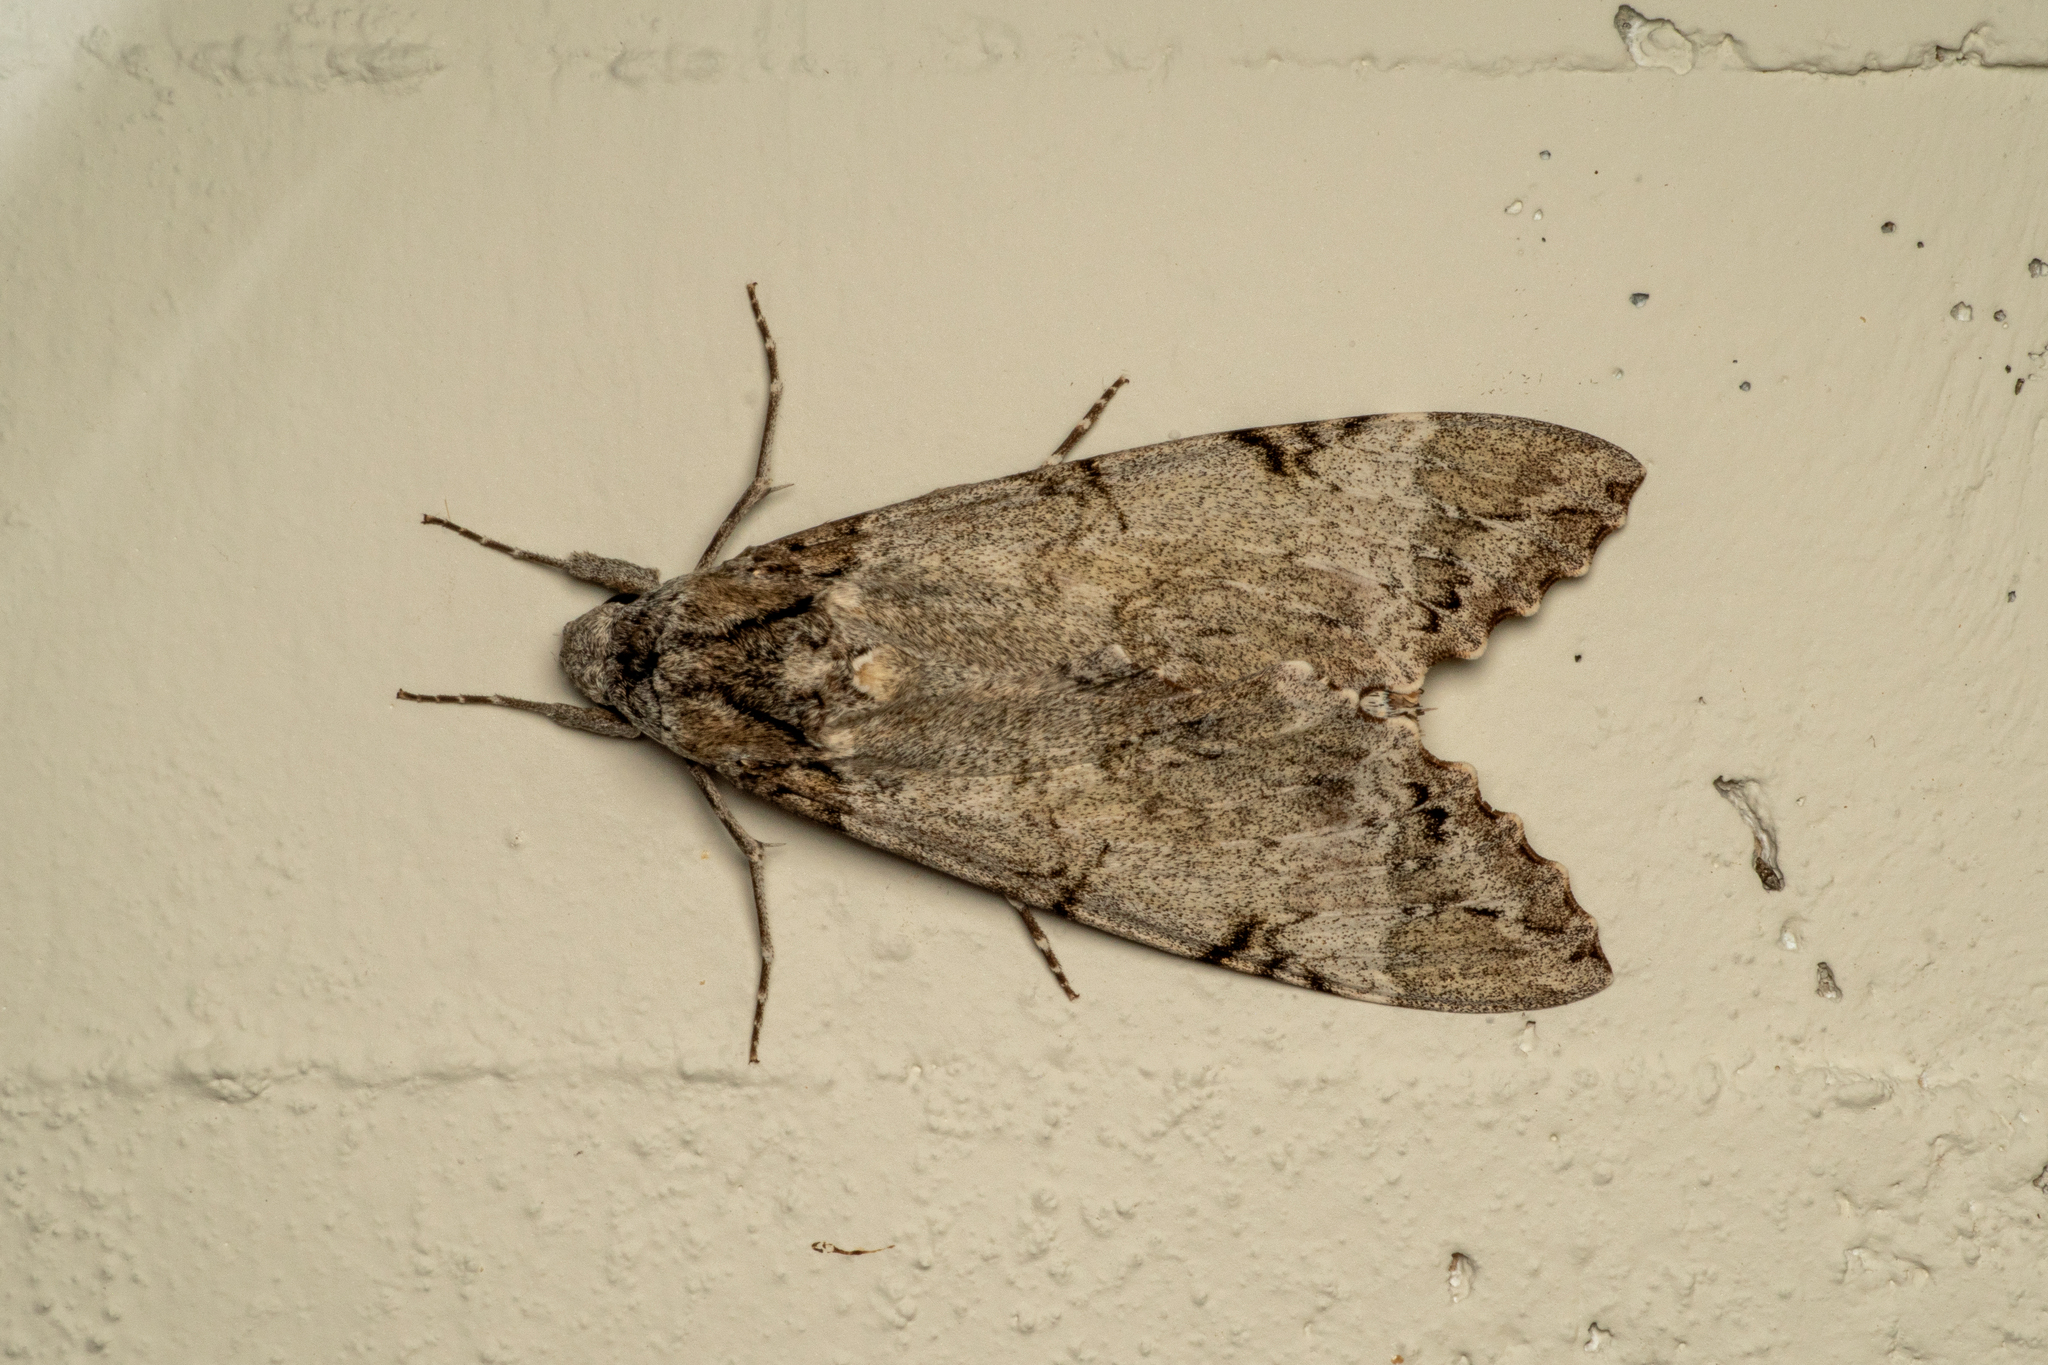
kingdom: Animalia
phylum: Arthropoda
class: Insecta
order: Lepidoptera
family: Sphingidae
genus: Pseudosphinx
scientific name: Pseudosphinx tetrio
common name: Tetrio sphinx
